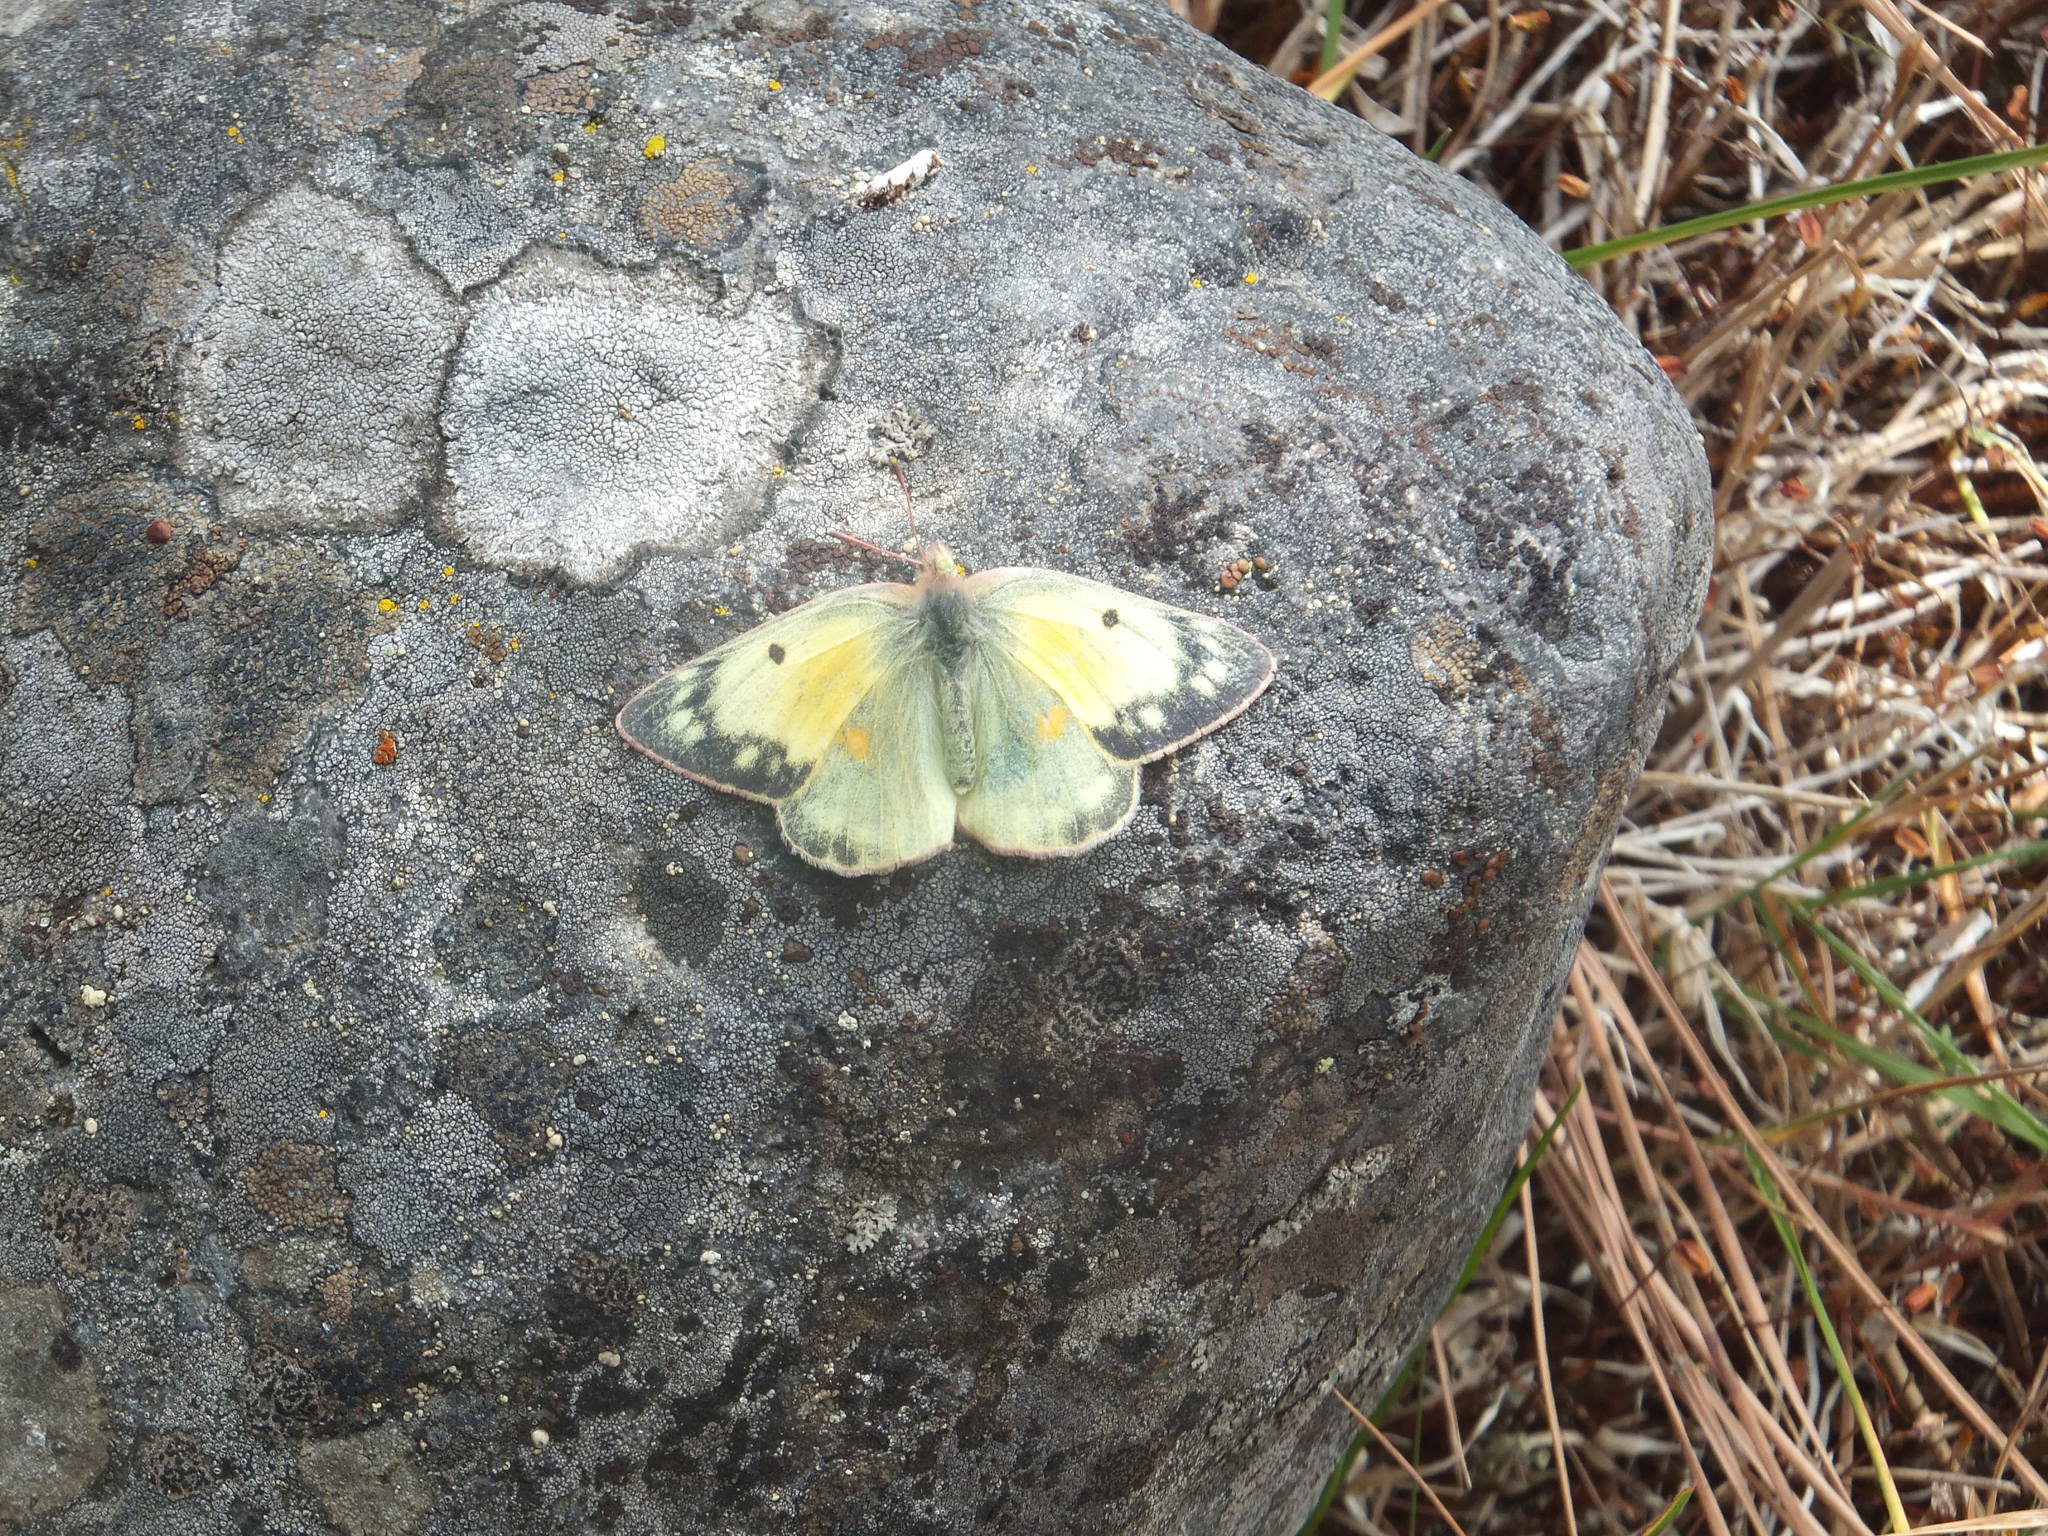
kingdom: Animalia
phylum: Arthropoda
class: Insecta
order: Lepidoptera
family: Pieridae
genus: Colias
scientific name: Colias eurytheme
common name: Alfalfa butterfly
